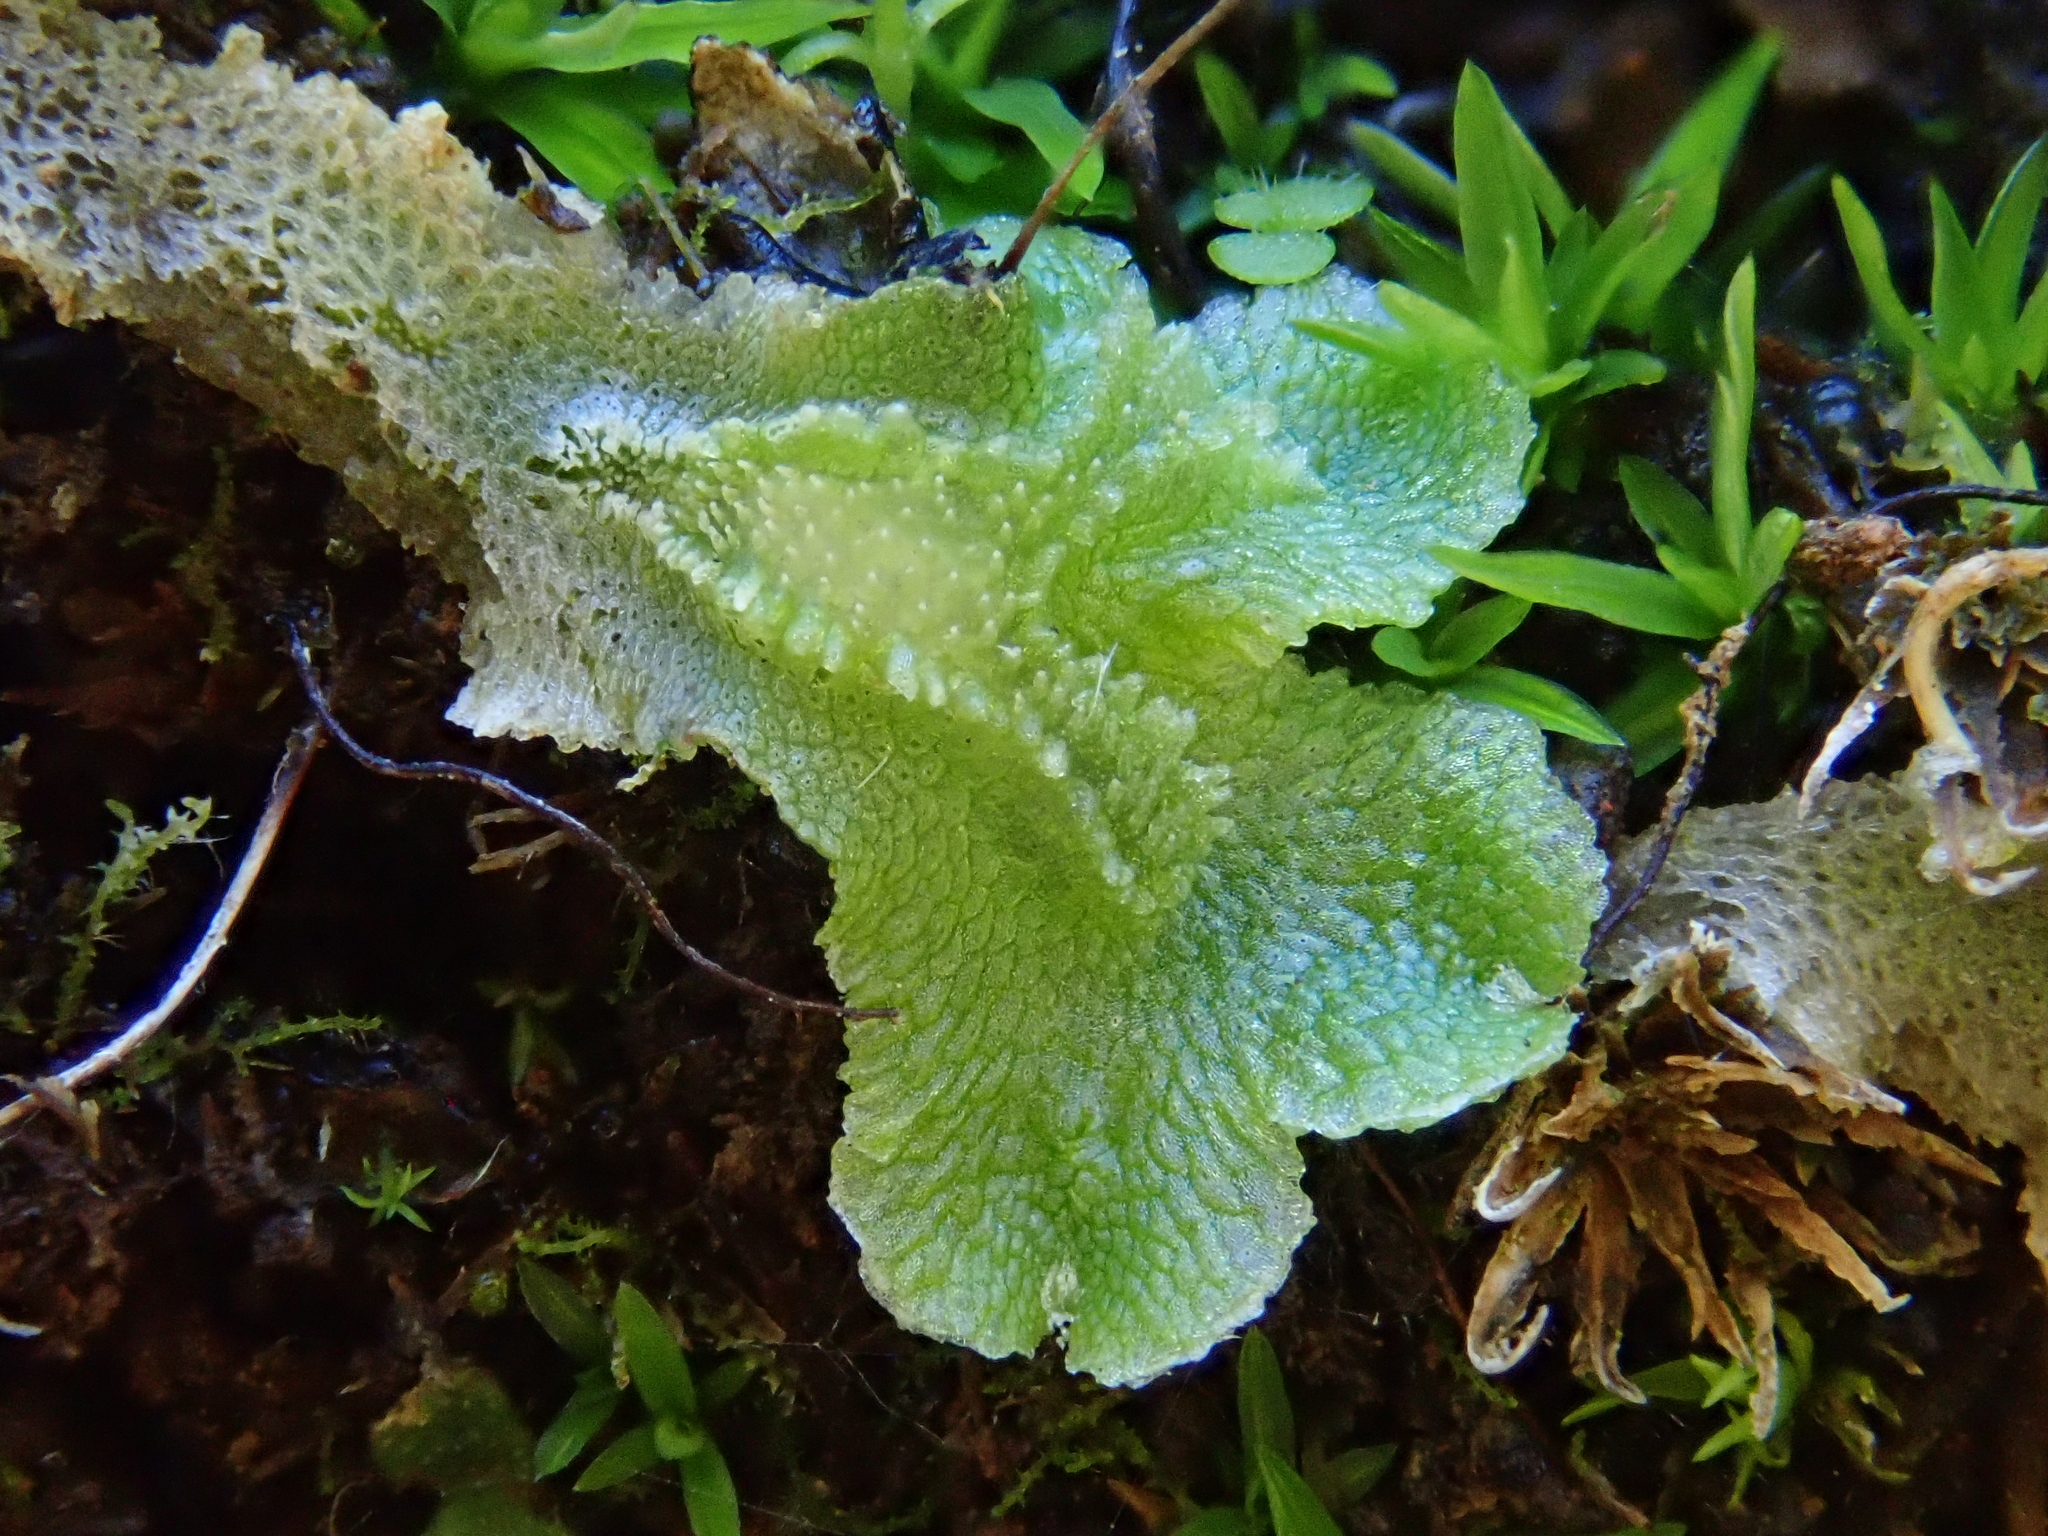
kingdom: Plantae
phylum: Marchantiophyta
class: Marchantiopsida
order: Marchantiales
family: Corsiniaceae
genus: Corsinia
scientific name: Corsinia coriandrina
